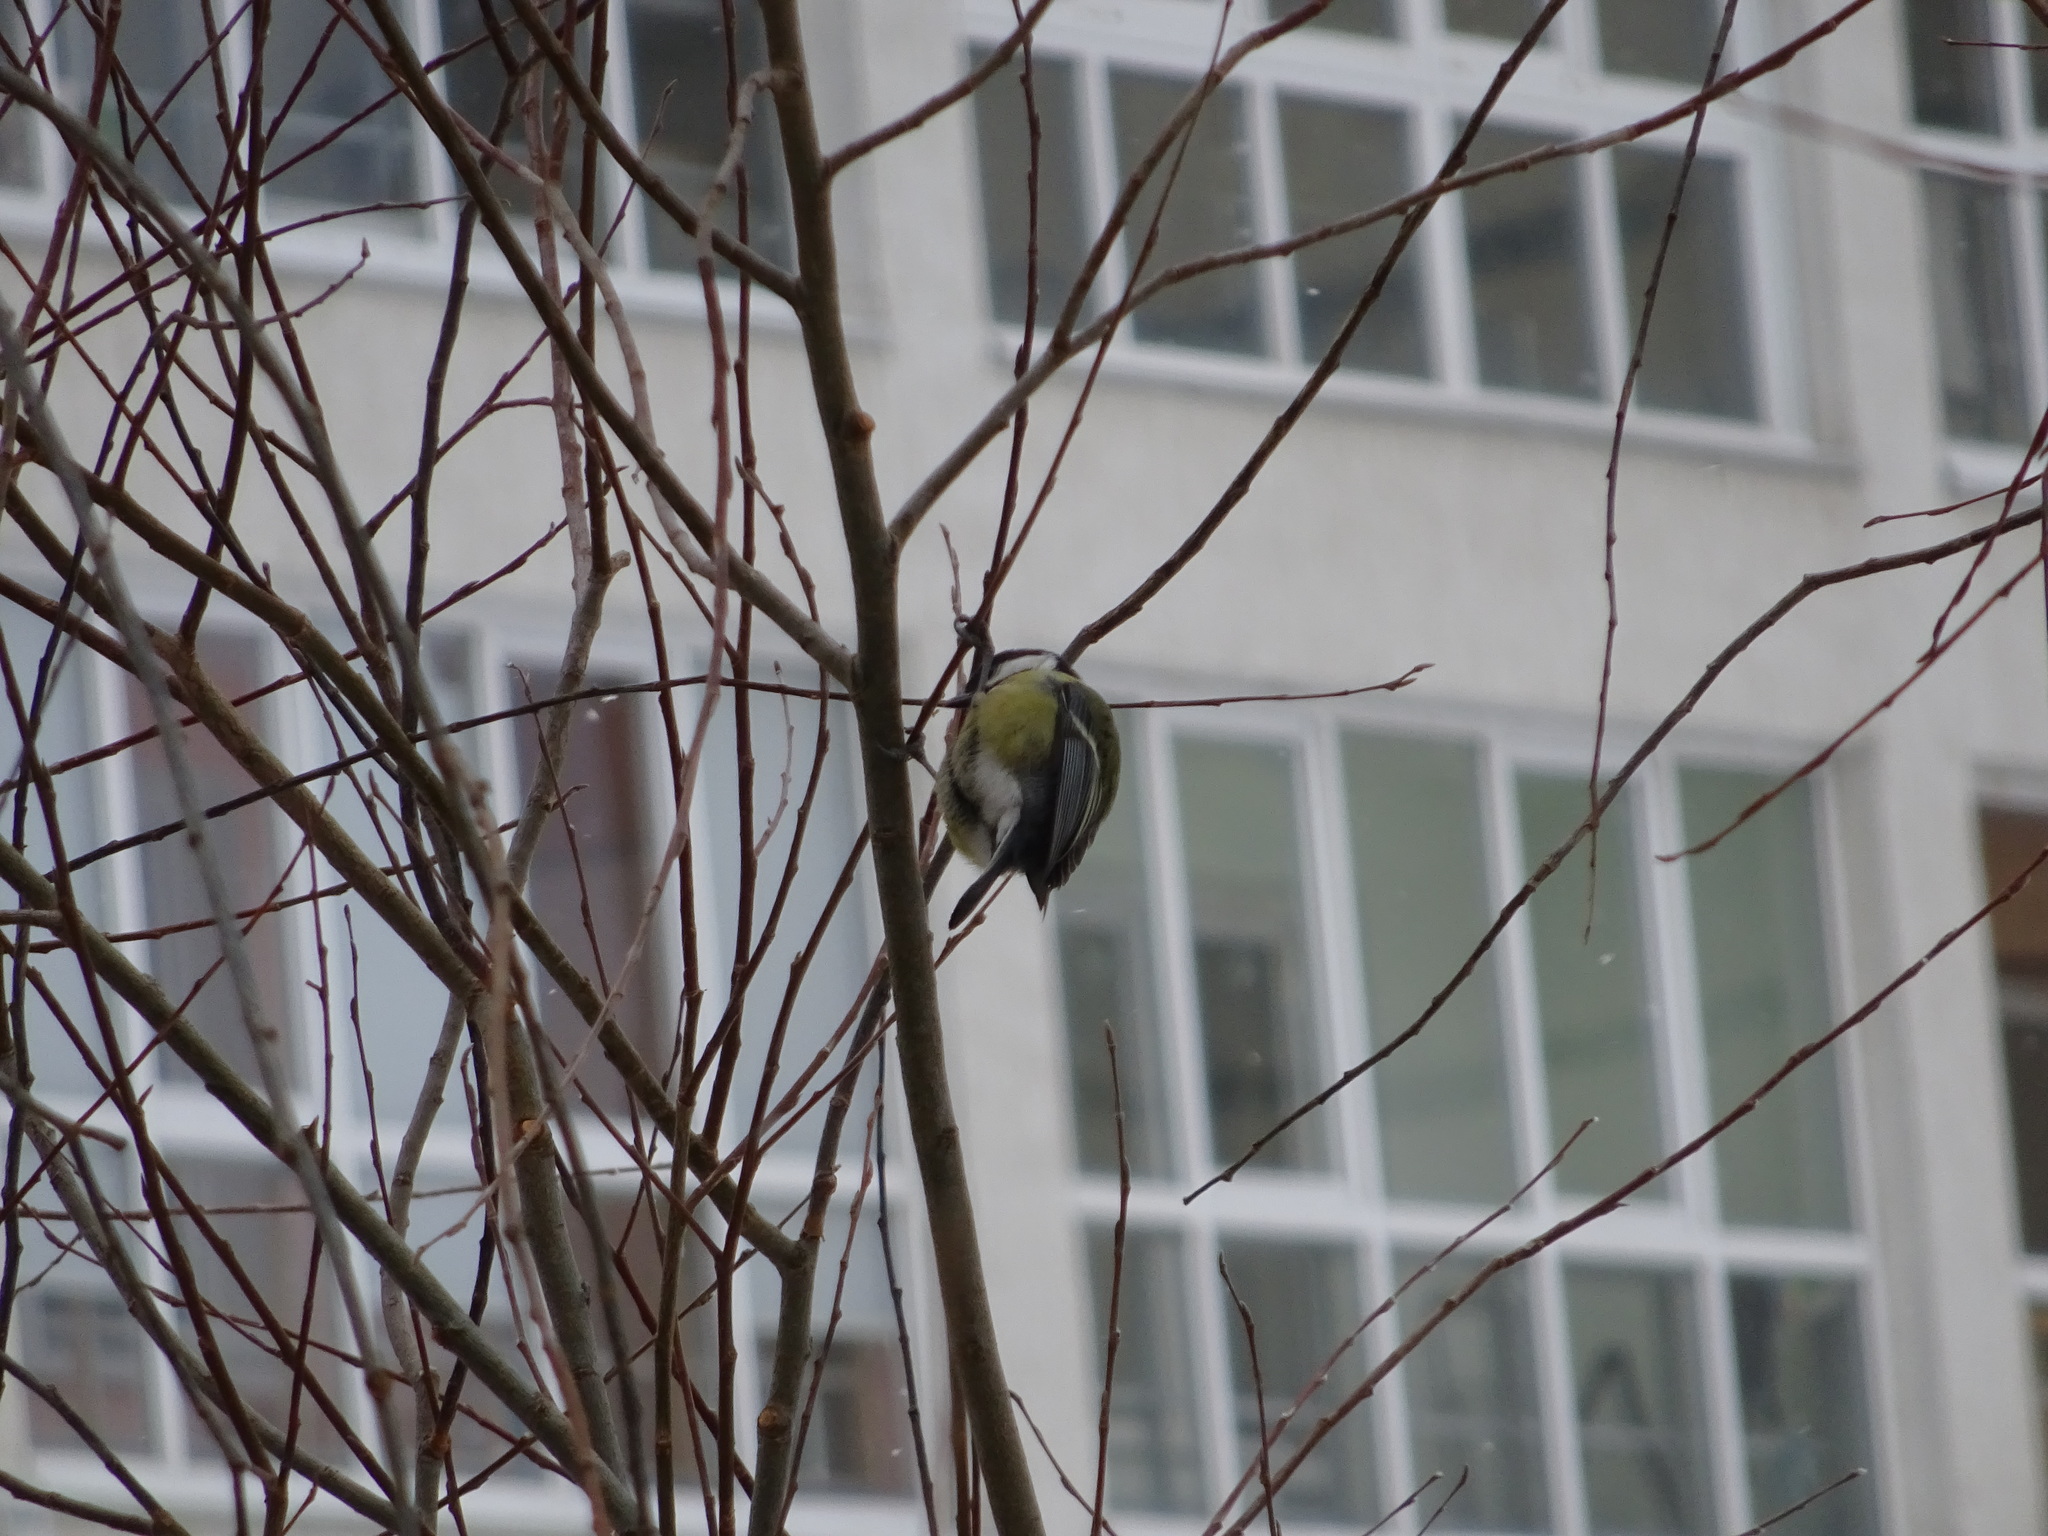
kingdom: Animalia
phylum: Chordata
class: Aves
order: Passeriformes
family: Paridae
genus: Parus
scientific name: Parus major
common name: Great tit
